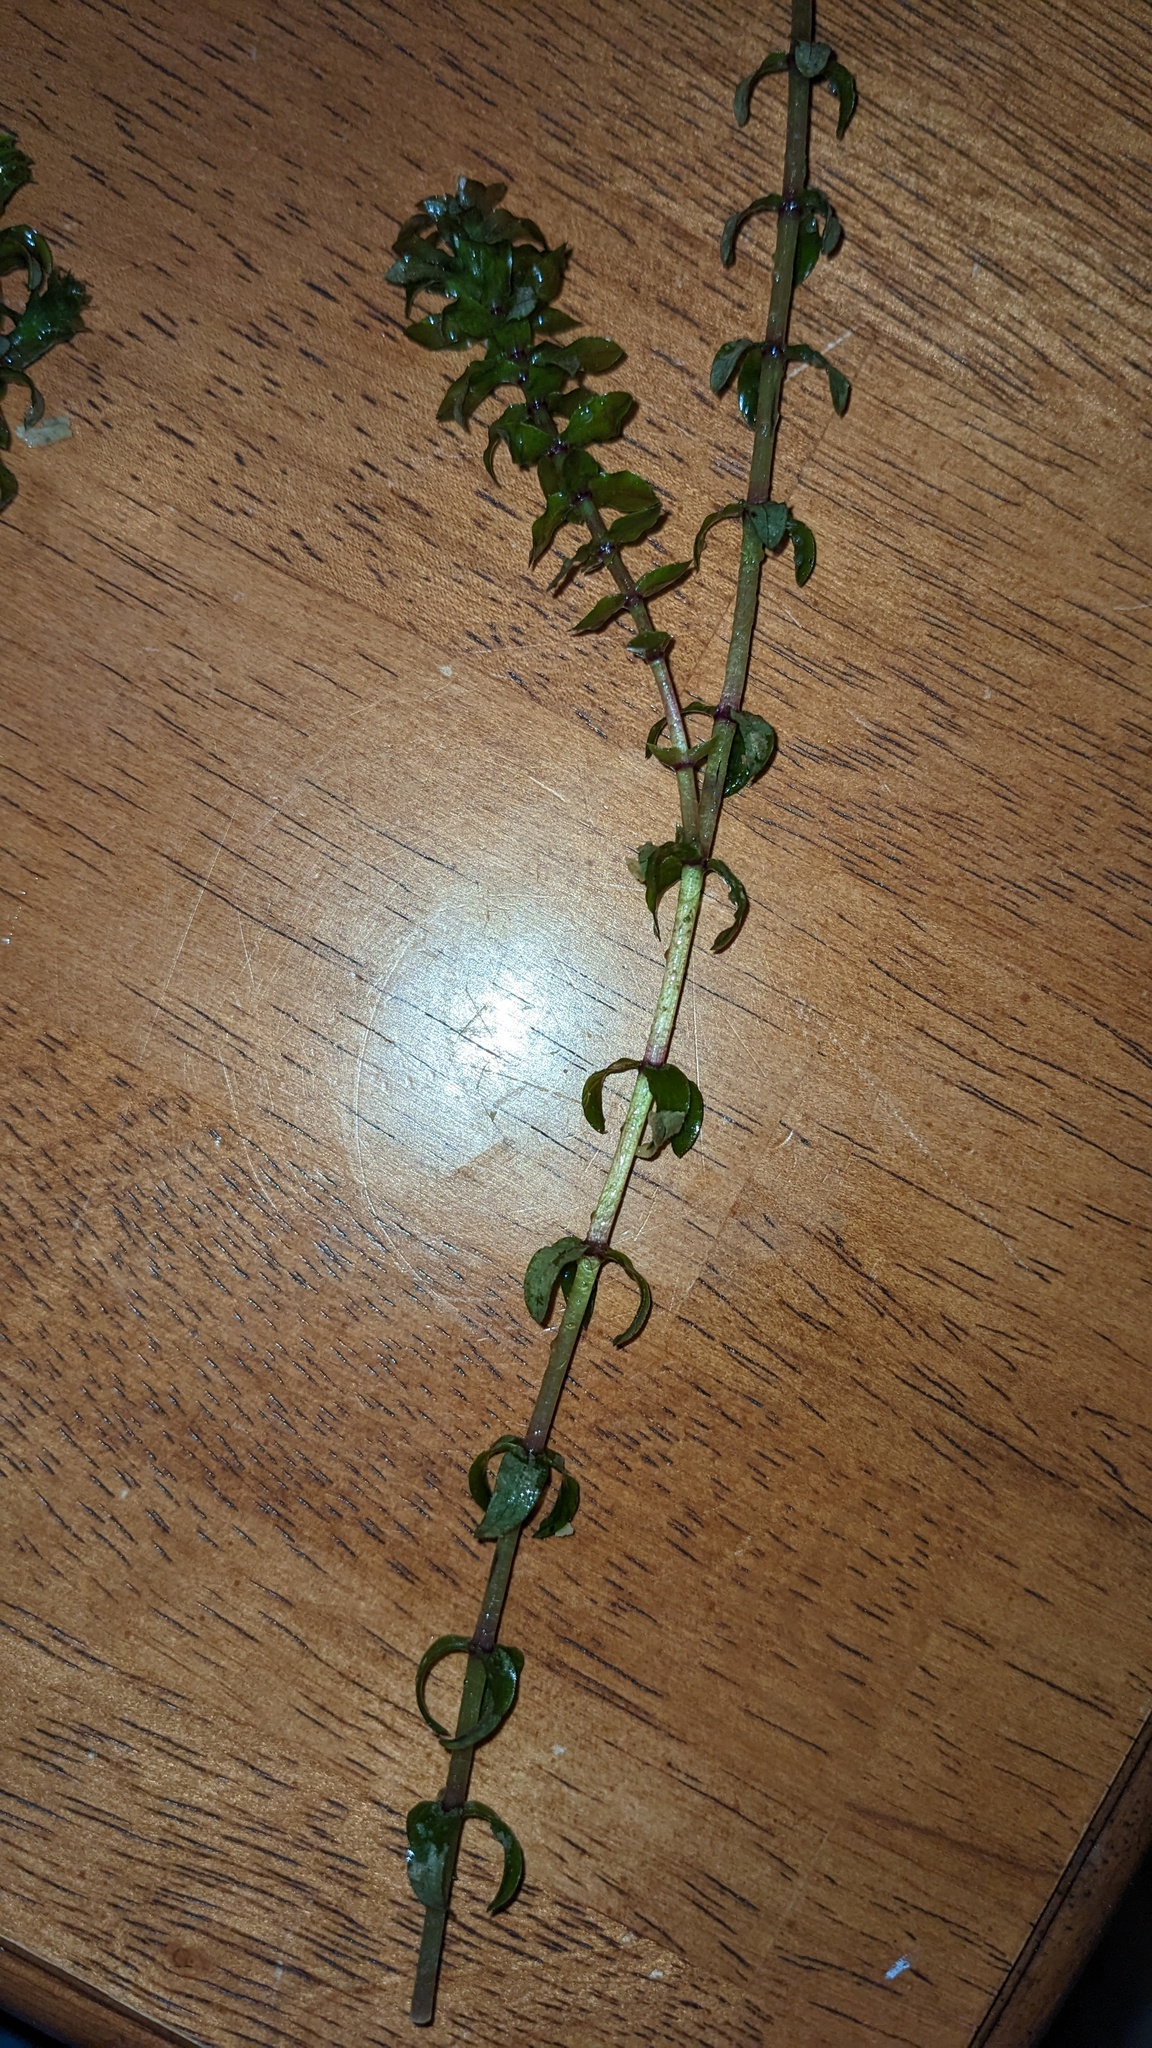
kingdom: Plantae
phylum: Tracheophyta
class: Liliopsida
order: Alismatales
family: Hydrocharitaceae
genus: Elodea
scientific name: Elodea canadensis
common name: Canadian waterweed
